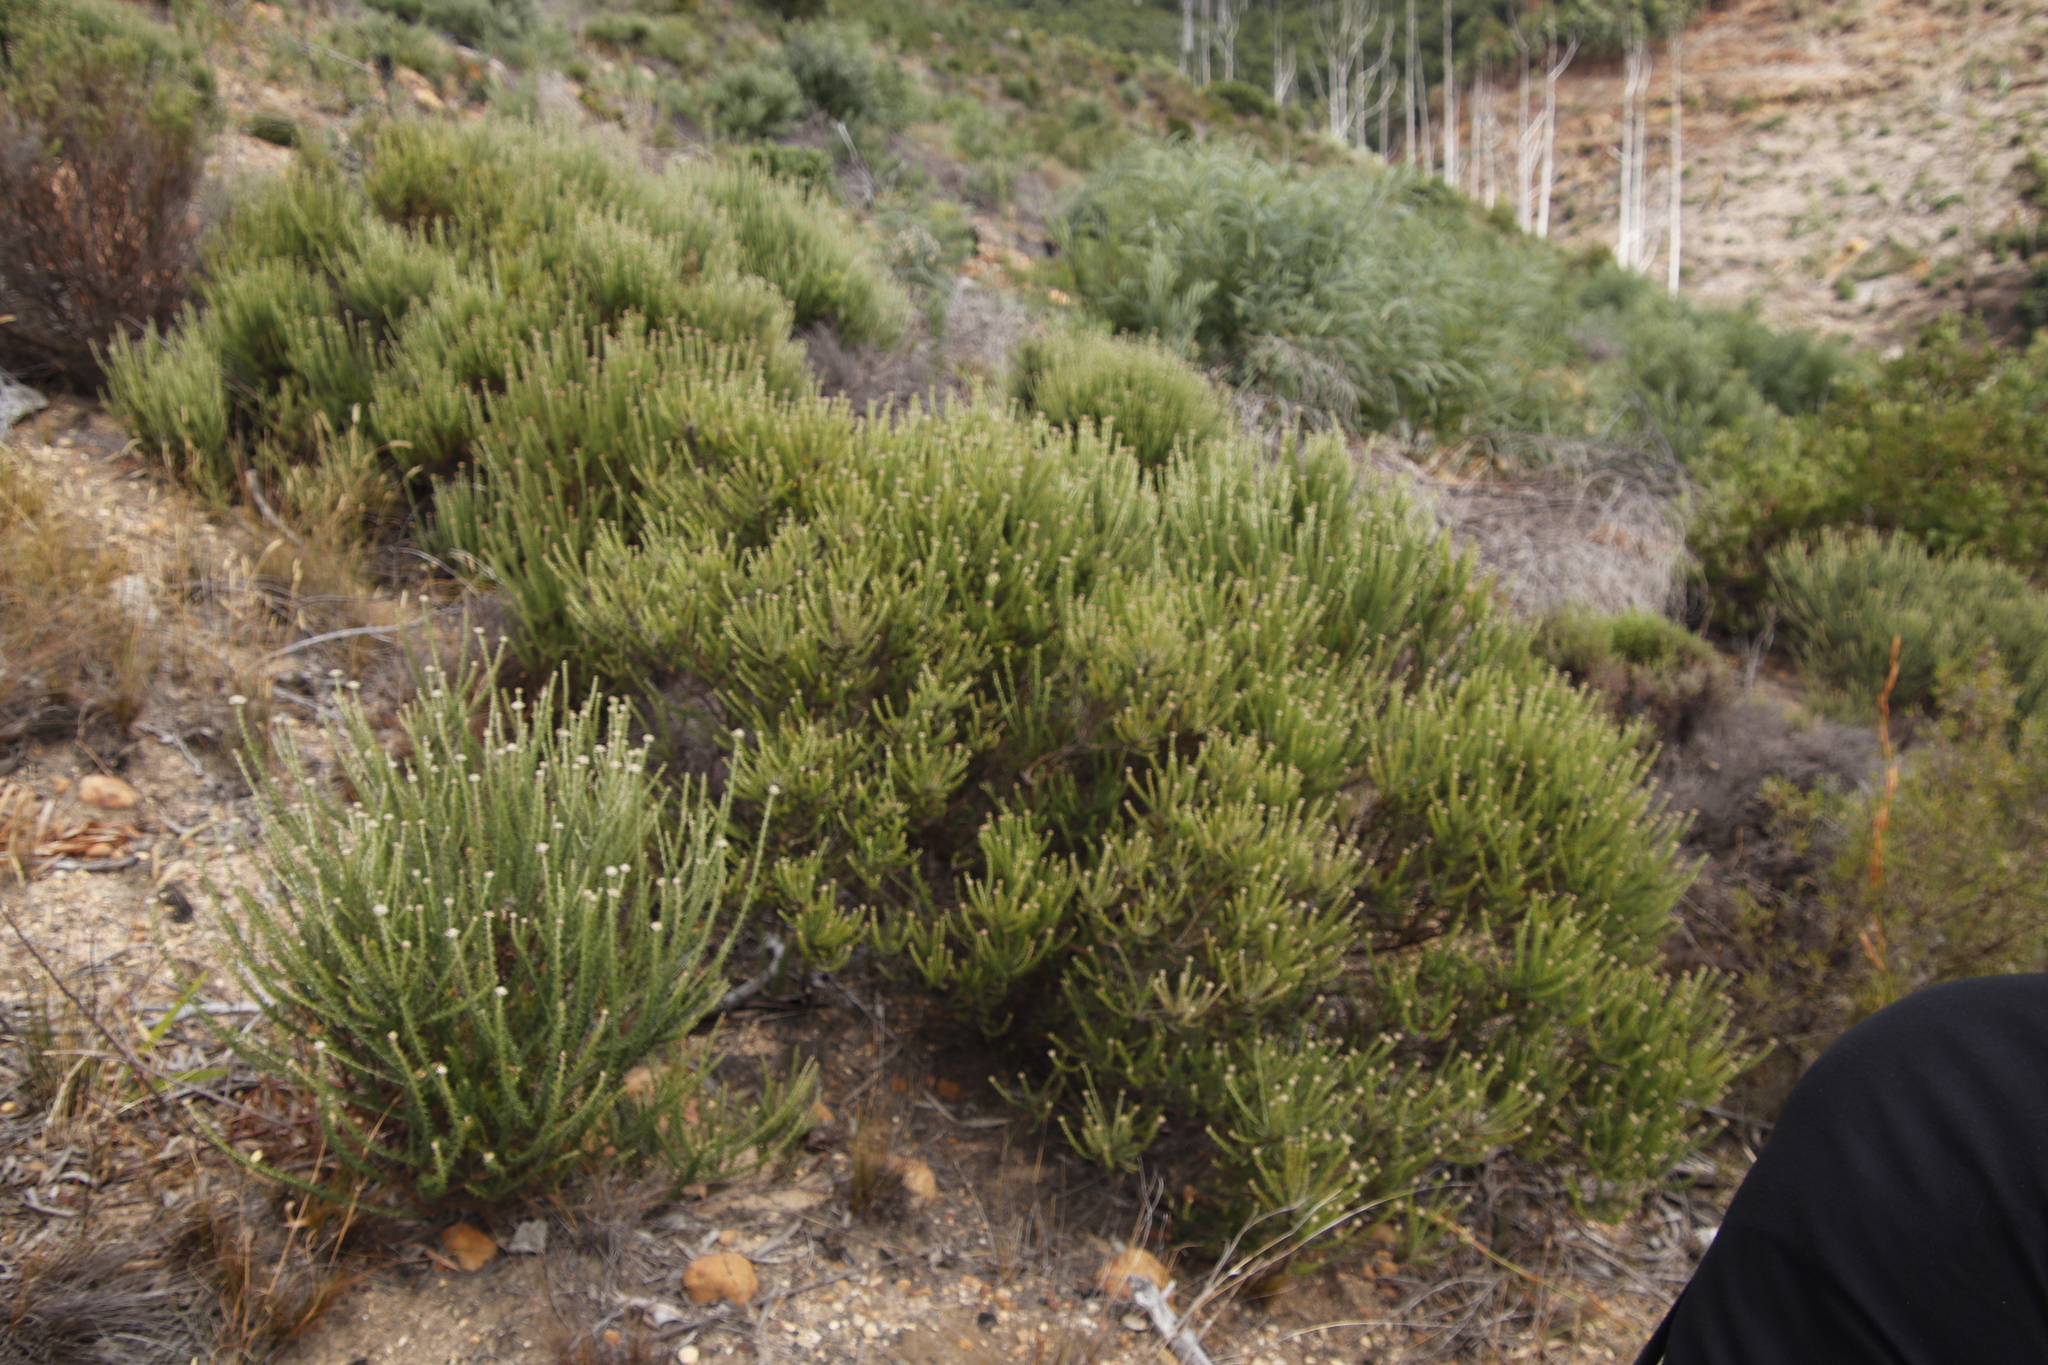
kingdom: Plantae
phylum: Tracheophyta
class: Magnoliopsida
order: Asterales
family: Asteraceae
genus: Metalasia
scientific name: Metalasia densa
